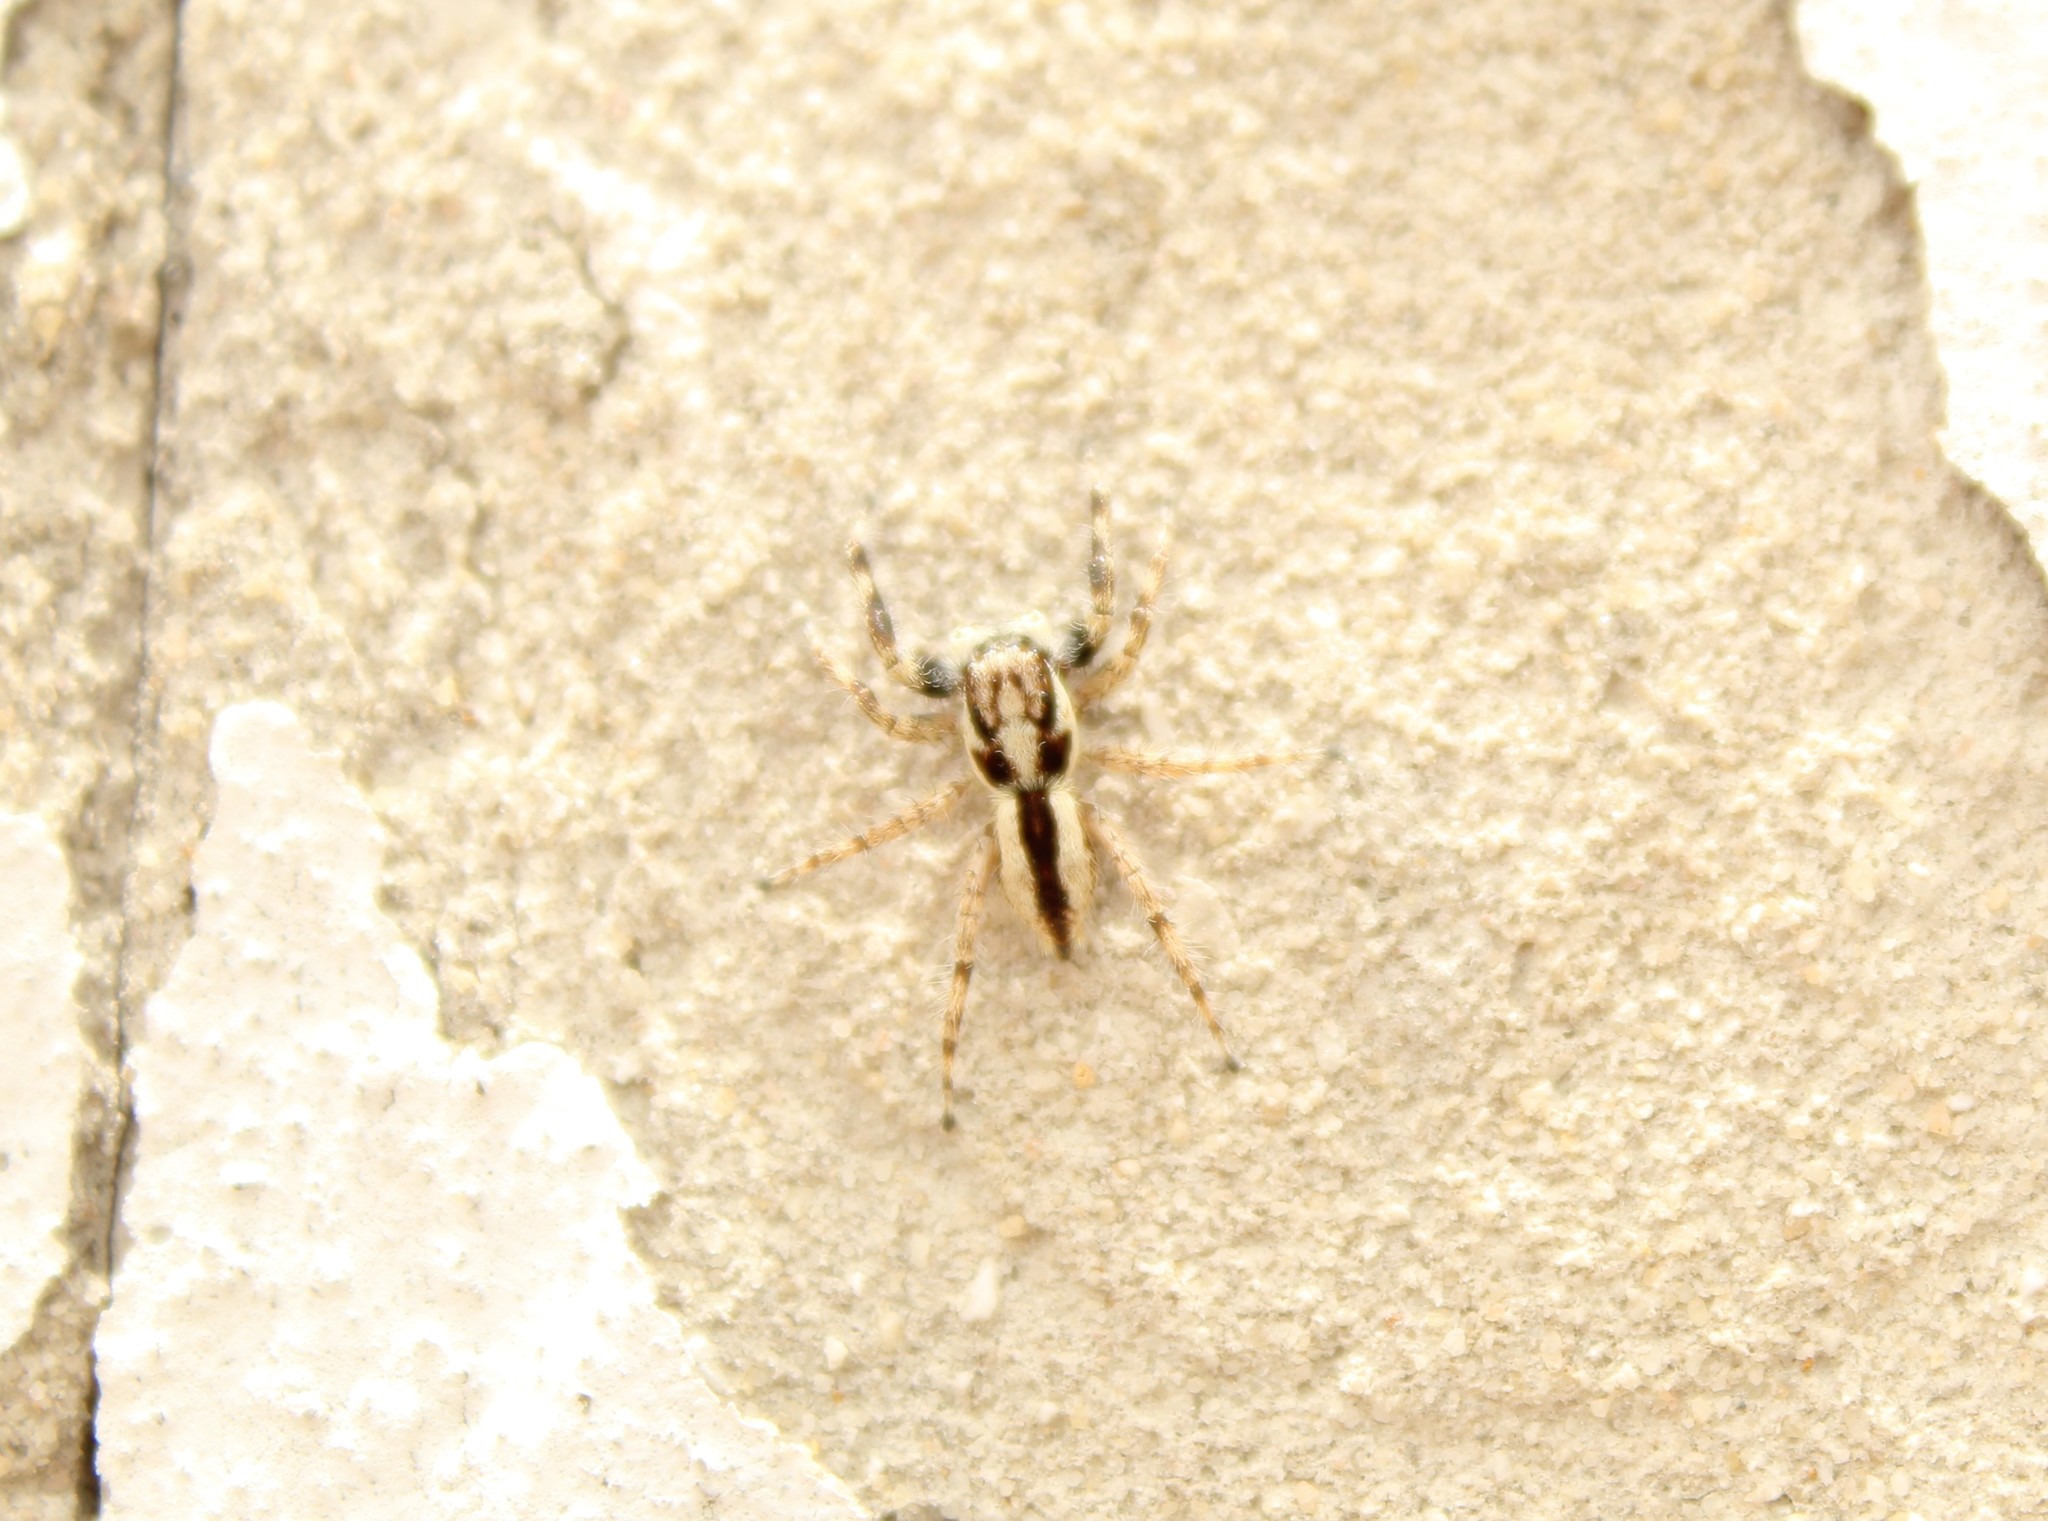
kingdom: Animalia
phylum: Arthropoda
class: Arachnida
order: Araneae
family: Salticidae
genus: Menemerus
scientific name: Menemerus bivittatus
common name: Gray wall jumper
